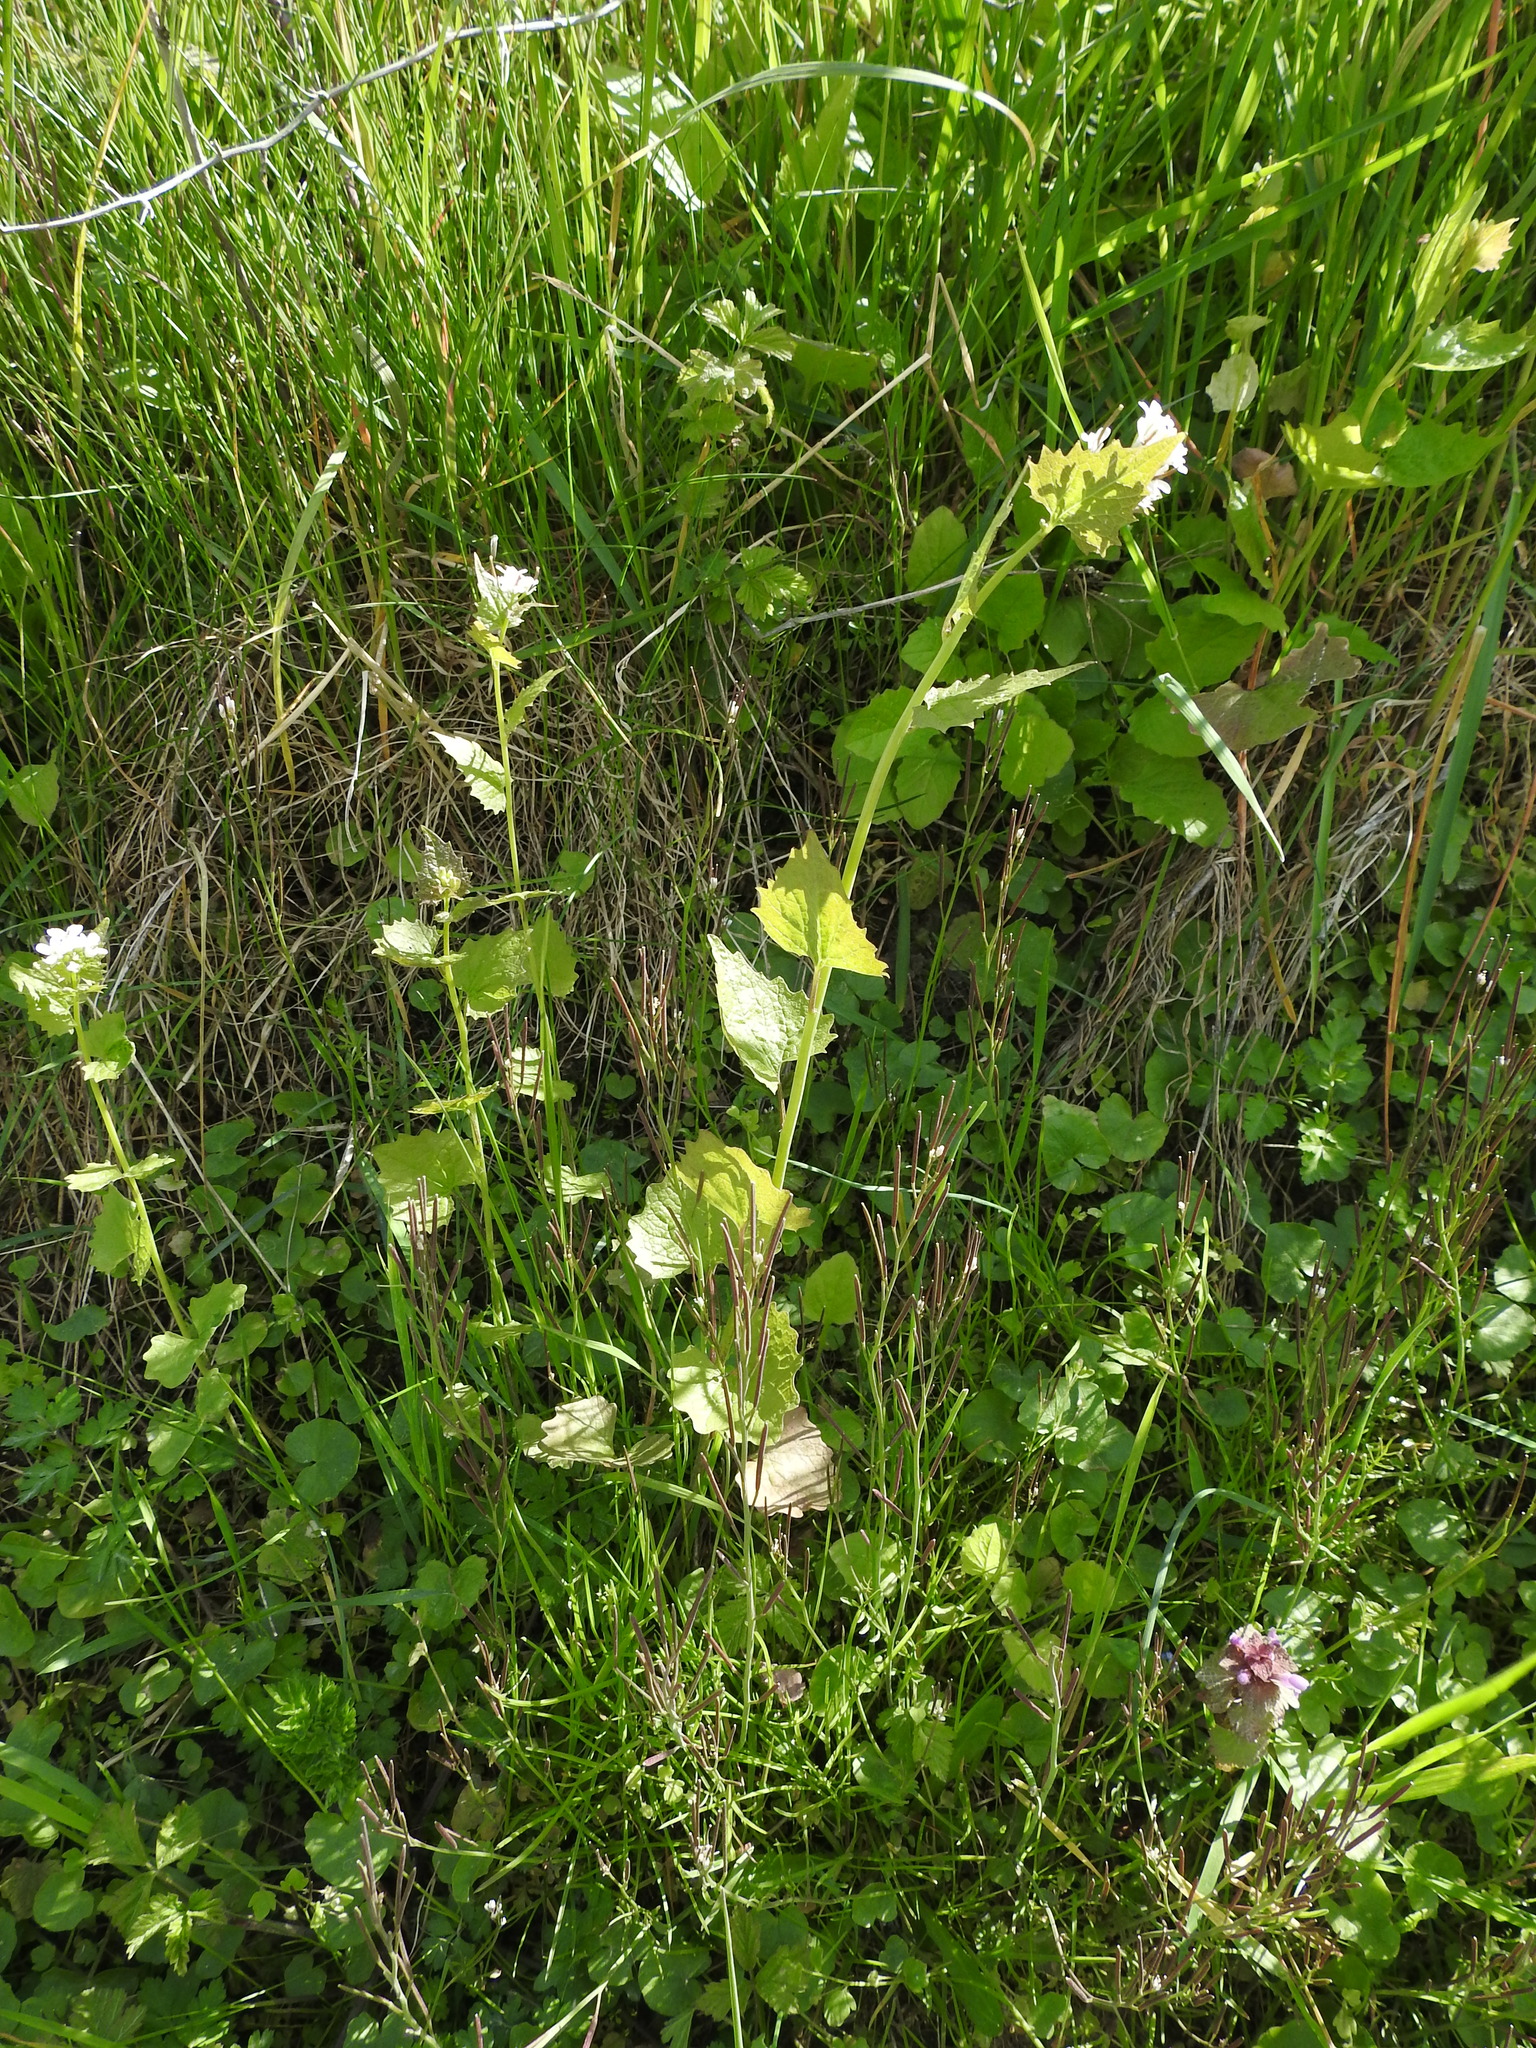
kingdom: Plantae
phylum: Tracheophyta
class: Magnoliopsida
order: Brassicales
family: Brassicaceae
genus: Alliaria
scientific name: Alliaria petiolata
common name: Garlic mustard
